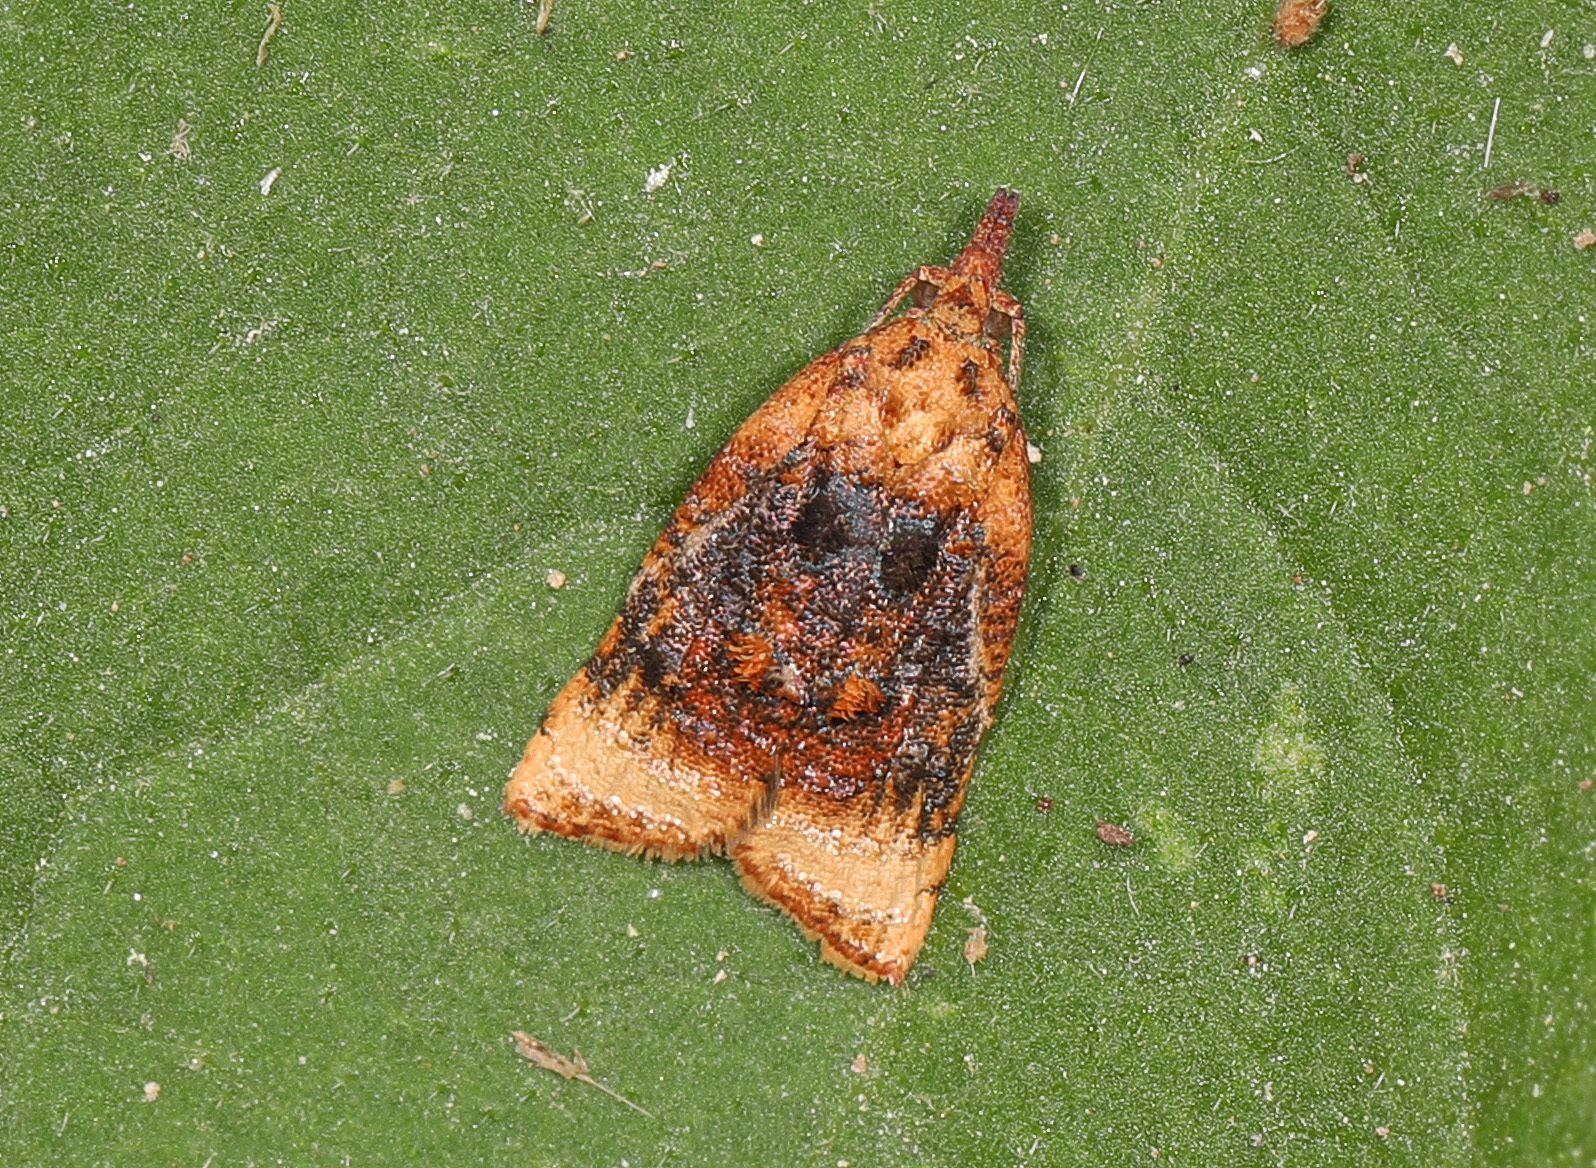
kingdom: Animalia
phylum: Arthropoda
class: Insecta
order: Lepidoptera
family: Tortricidae
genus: Platynota
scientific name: Platynota flavedana
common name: Black-shaded platynota moth
